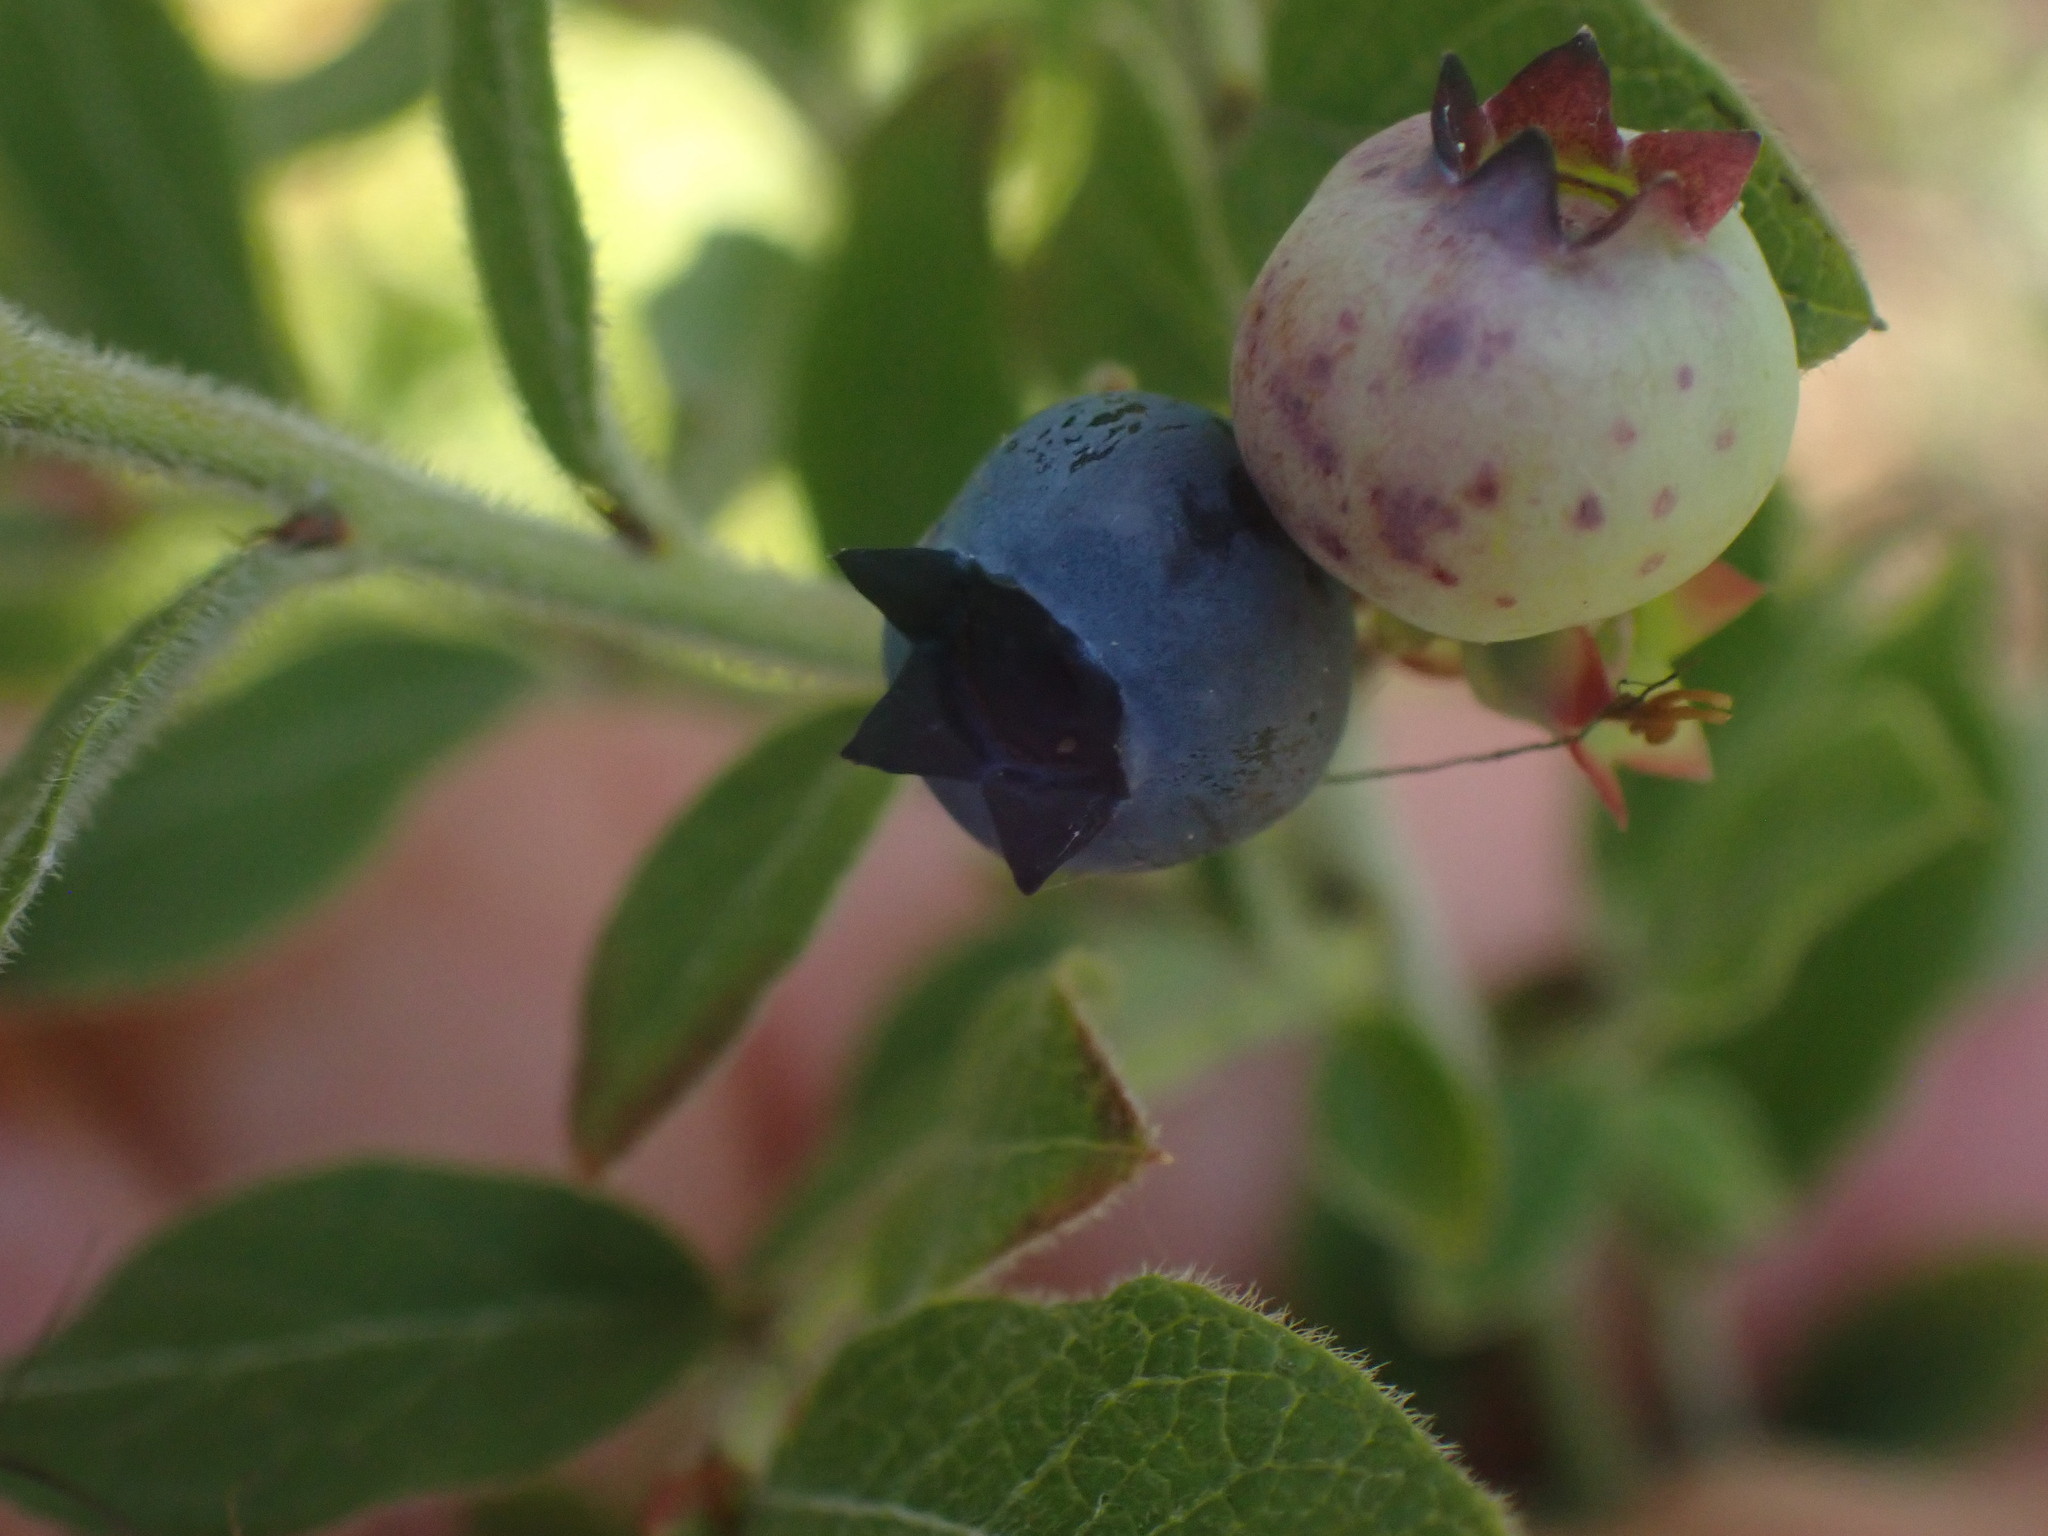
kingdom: Plantae
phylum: Tracheophyta
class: Magnoliopsida
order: Ericales
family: Ericaceae
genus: Vaccinium
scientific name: Vaccinium myrtilloides
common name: Canada blueberry
